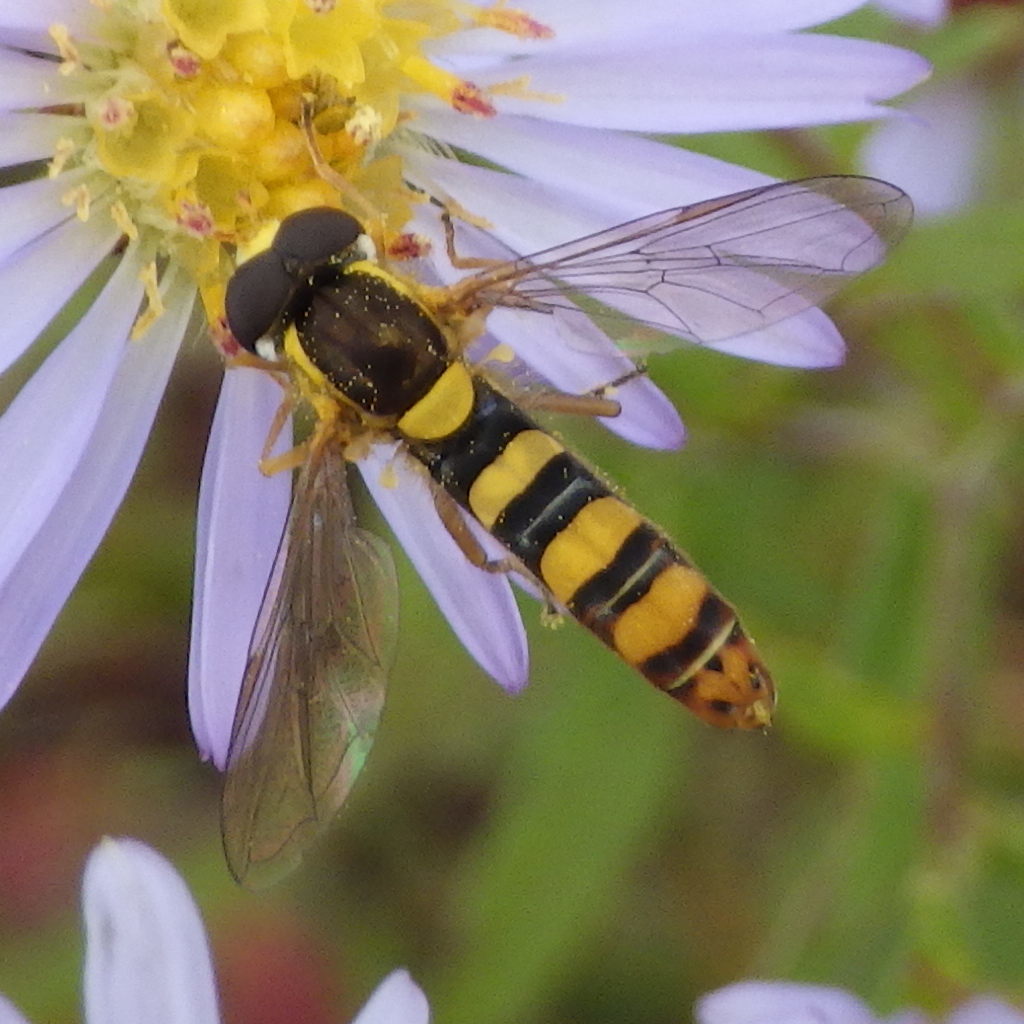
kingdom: Animalia
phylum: Arthropoda
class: Insecta
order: Diptera
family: Syrphidae
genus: Sphaerophoria
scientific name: Sphaerophoria philantha
